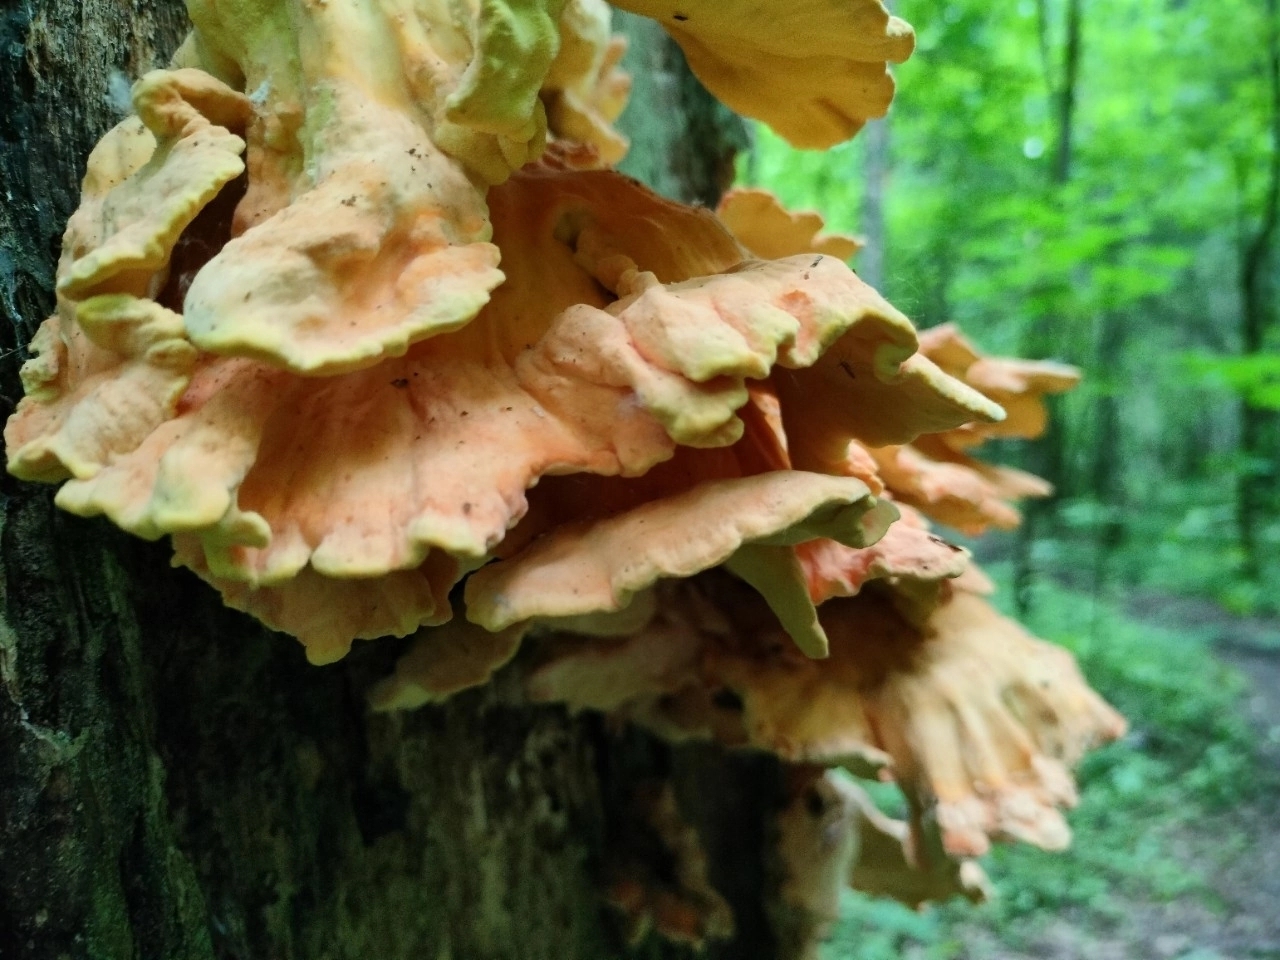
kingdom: Fungi
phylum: Basidiomycota
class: Agaricomycetes
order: Polyporales
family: Laetiporaceae
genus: Laetiporus
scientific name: Laetiporus sulphureus
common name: Chicken of the woods
